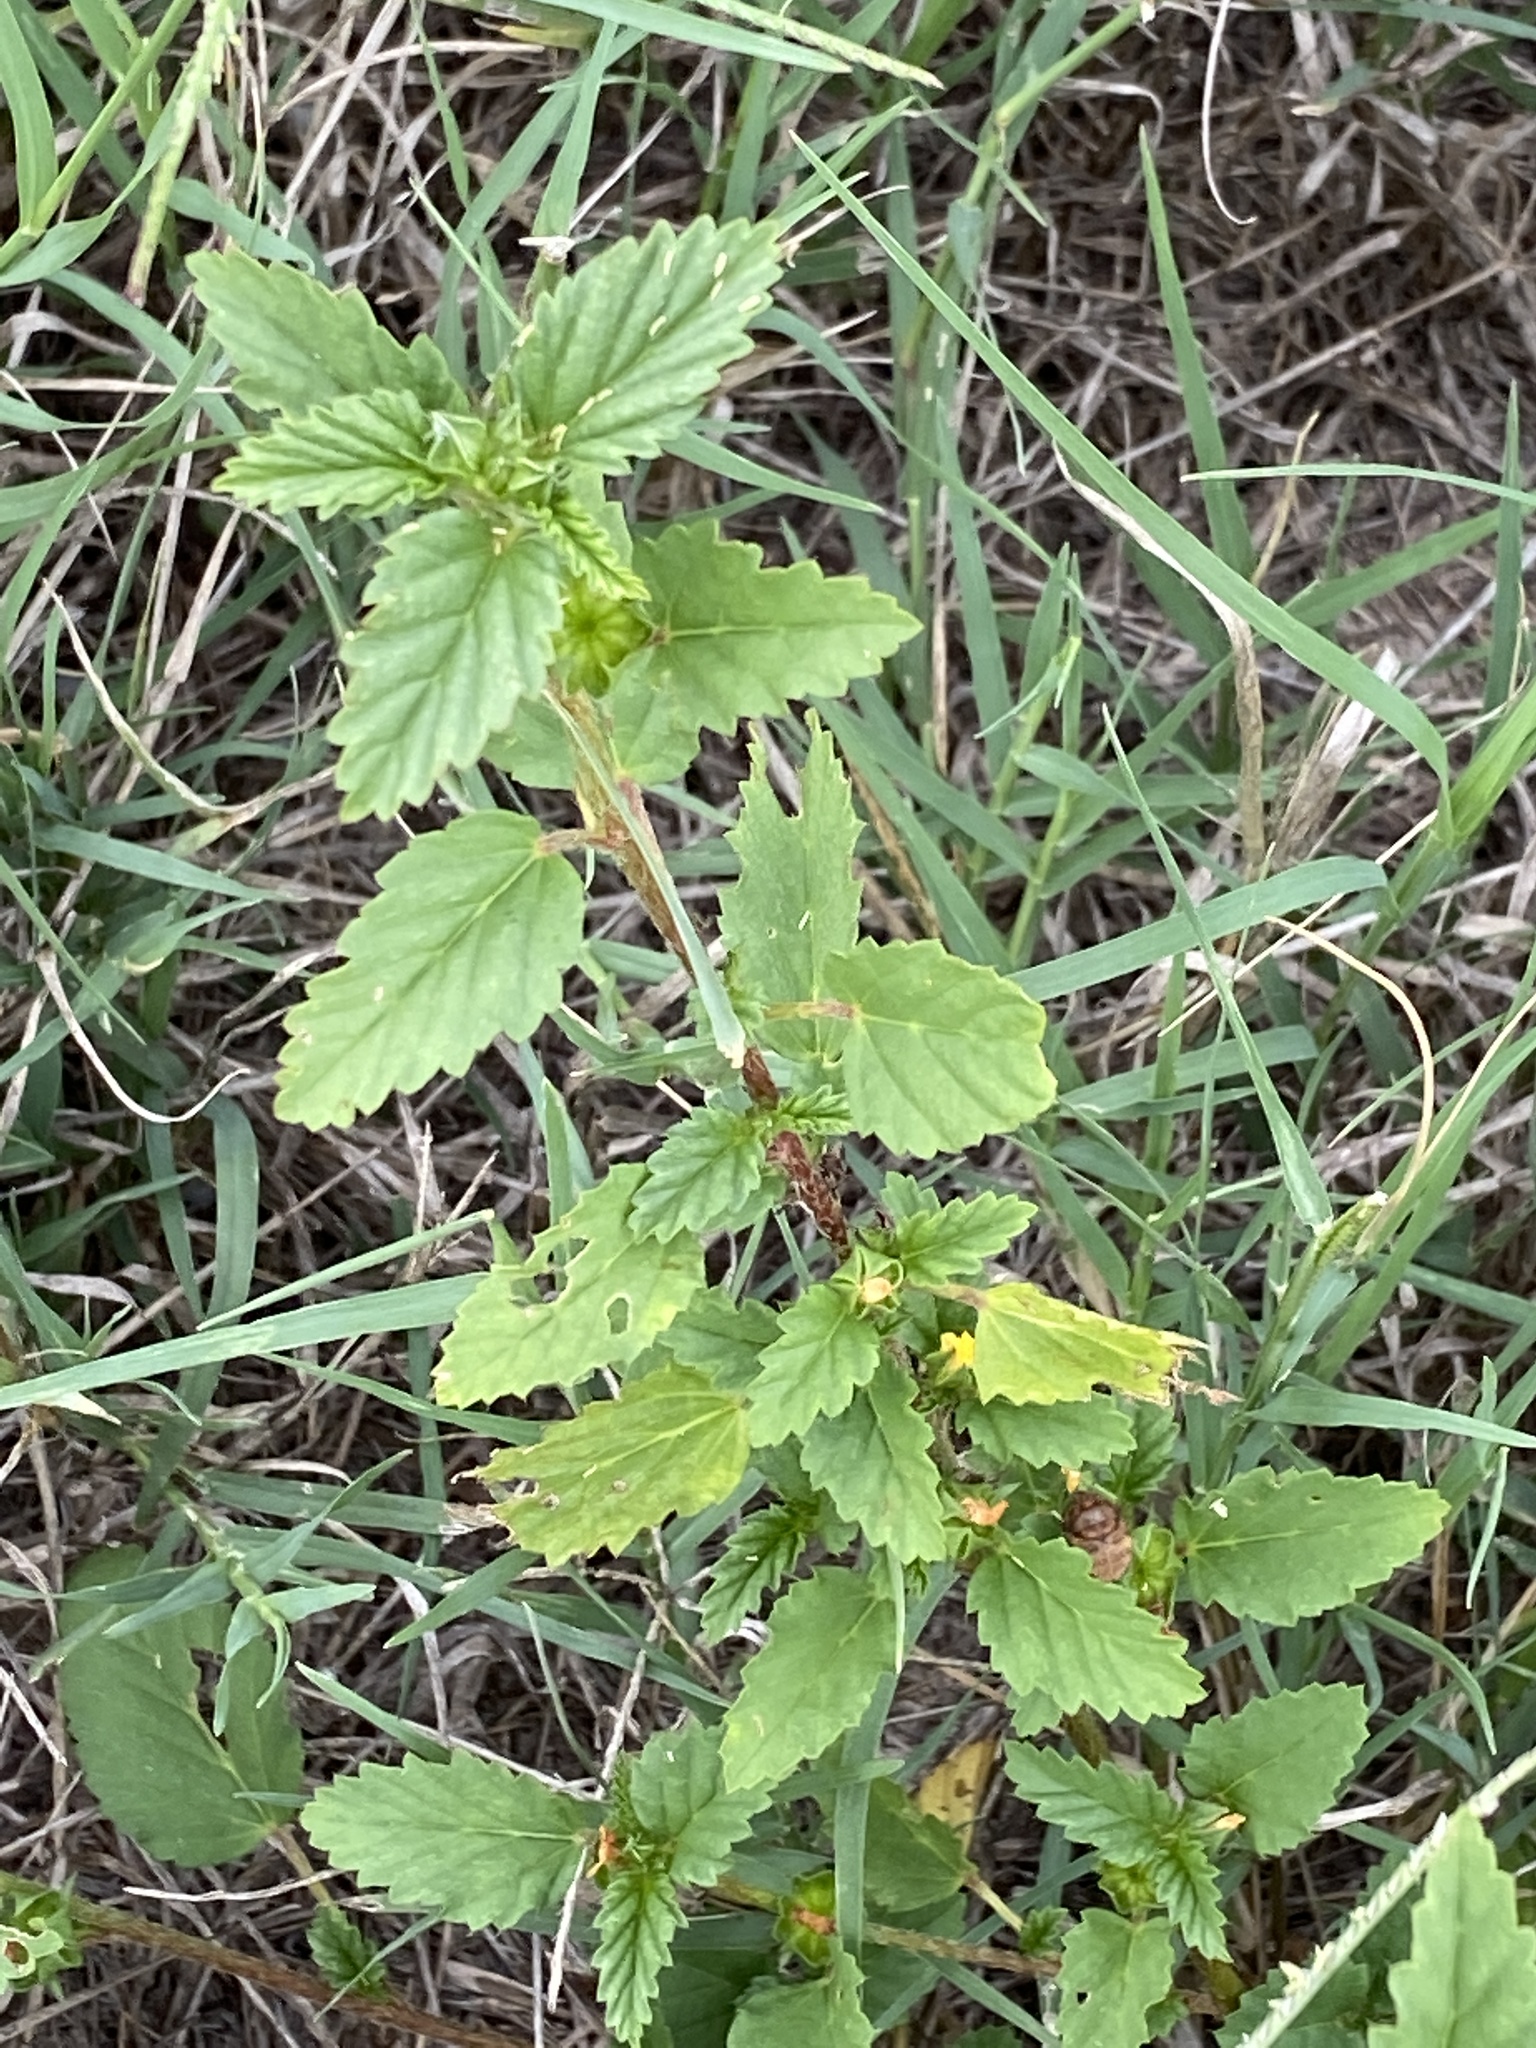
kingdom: Plantae
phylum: Tracheophyta
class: Magnoliopsida
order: Malvales
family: Malvaceae
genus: Malvastrum
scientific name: Malvastrum coromandelianum
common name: Threelobe false mallow
